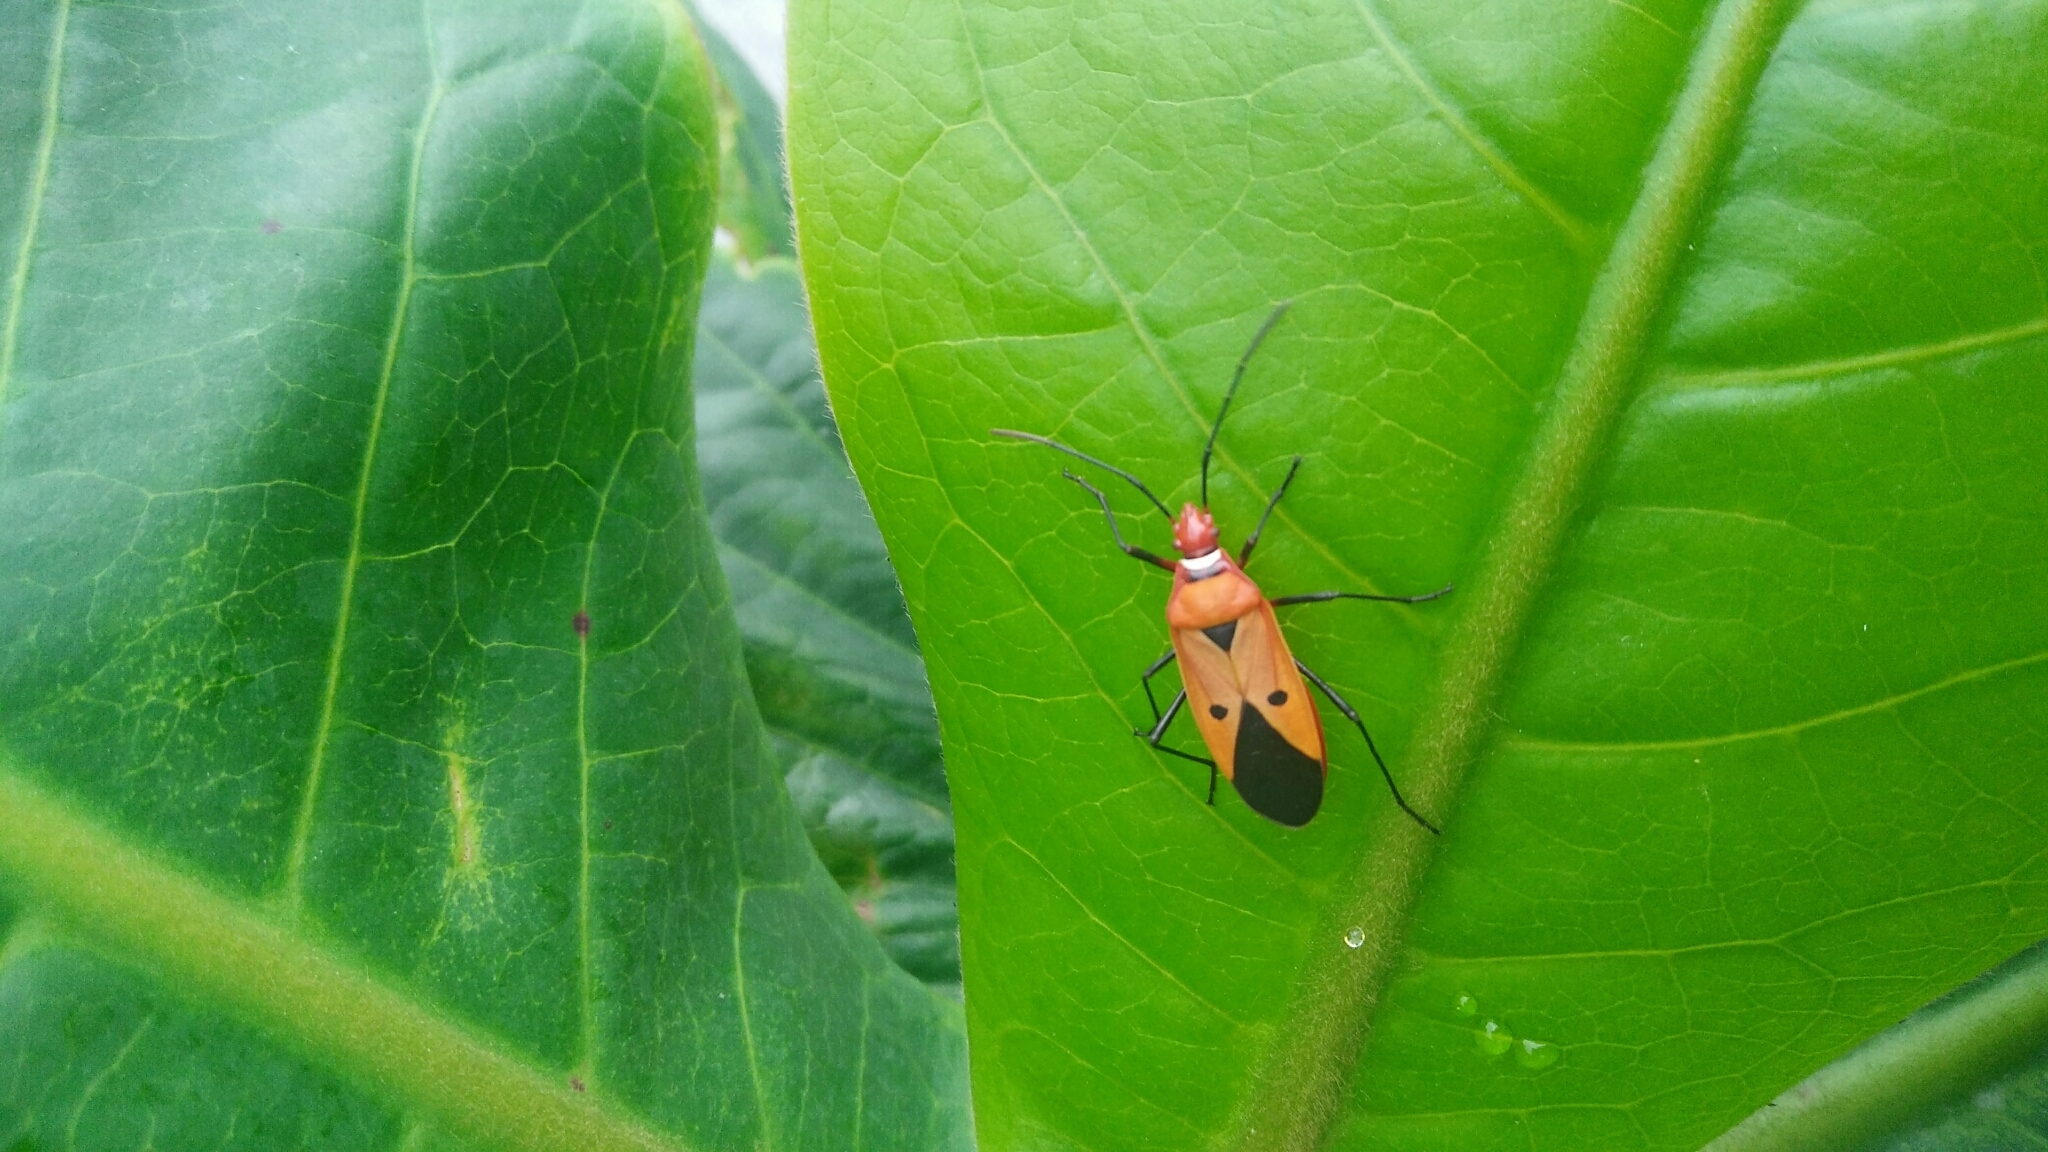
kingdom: Animalia
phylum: Arthropoda
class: Insecta
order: Hemiptera
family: Pyrrhocoridae
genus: Dysdercus
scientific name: Dysdercus cingulatus
